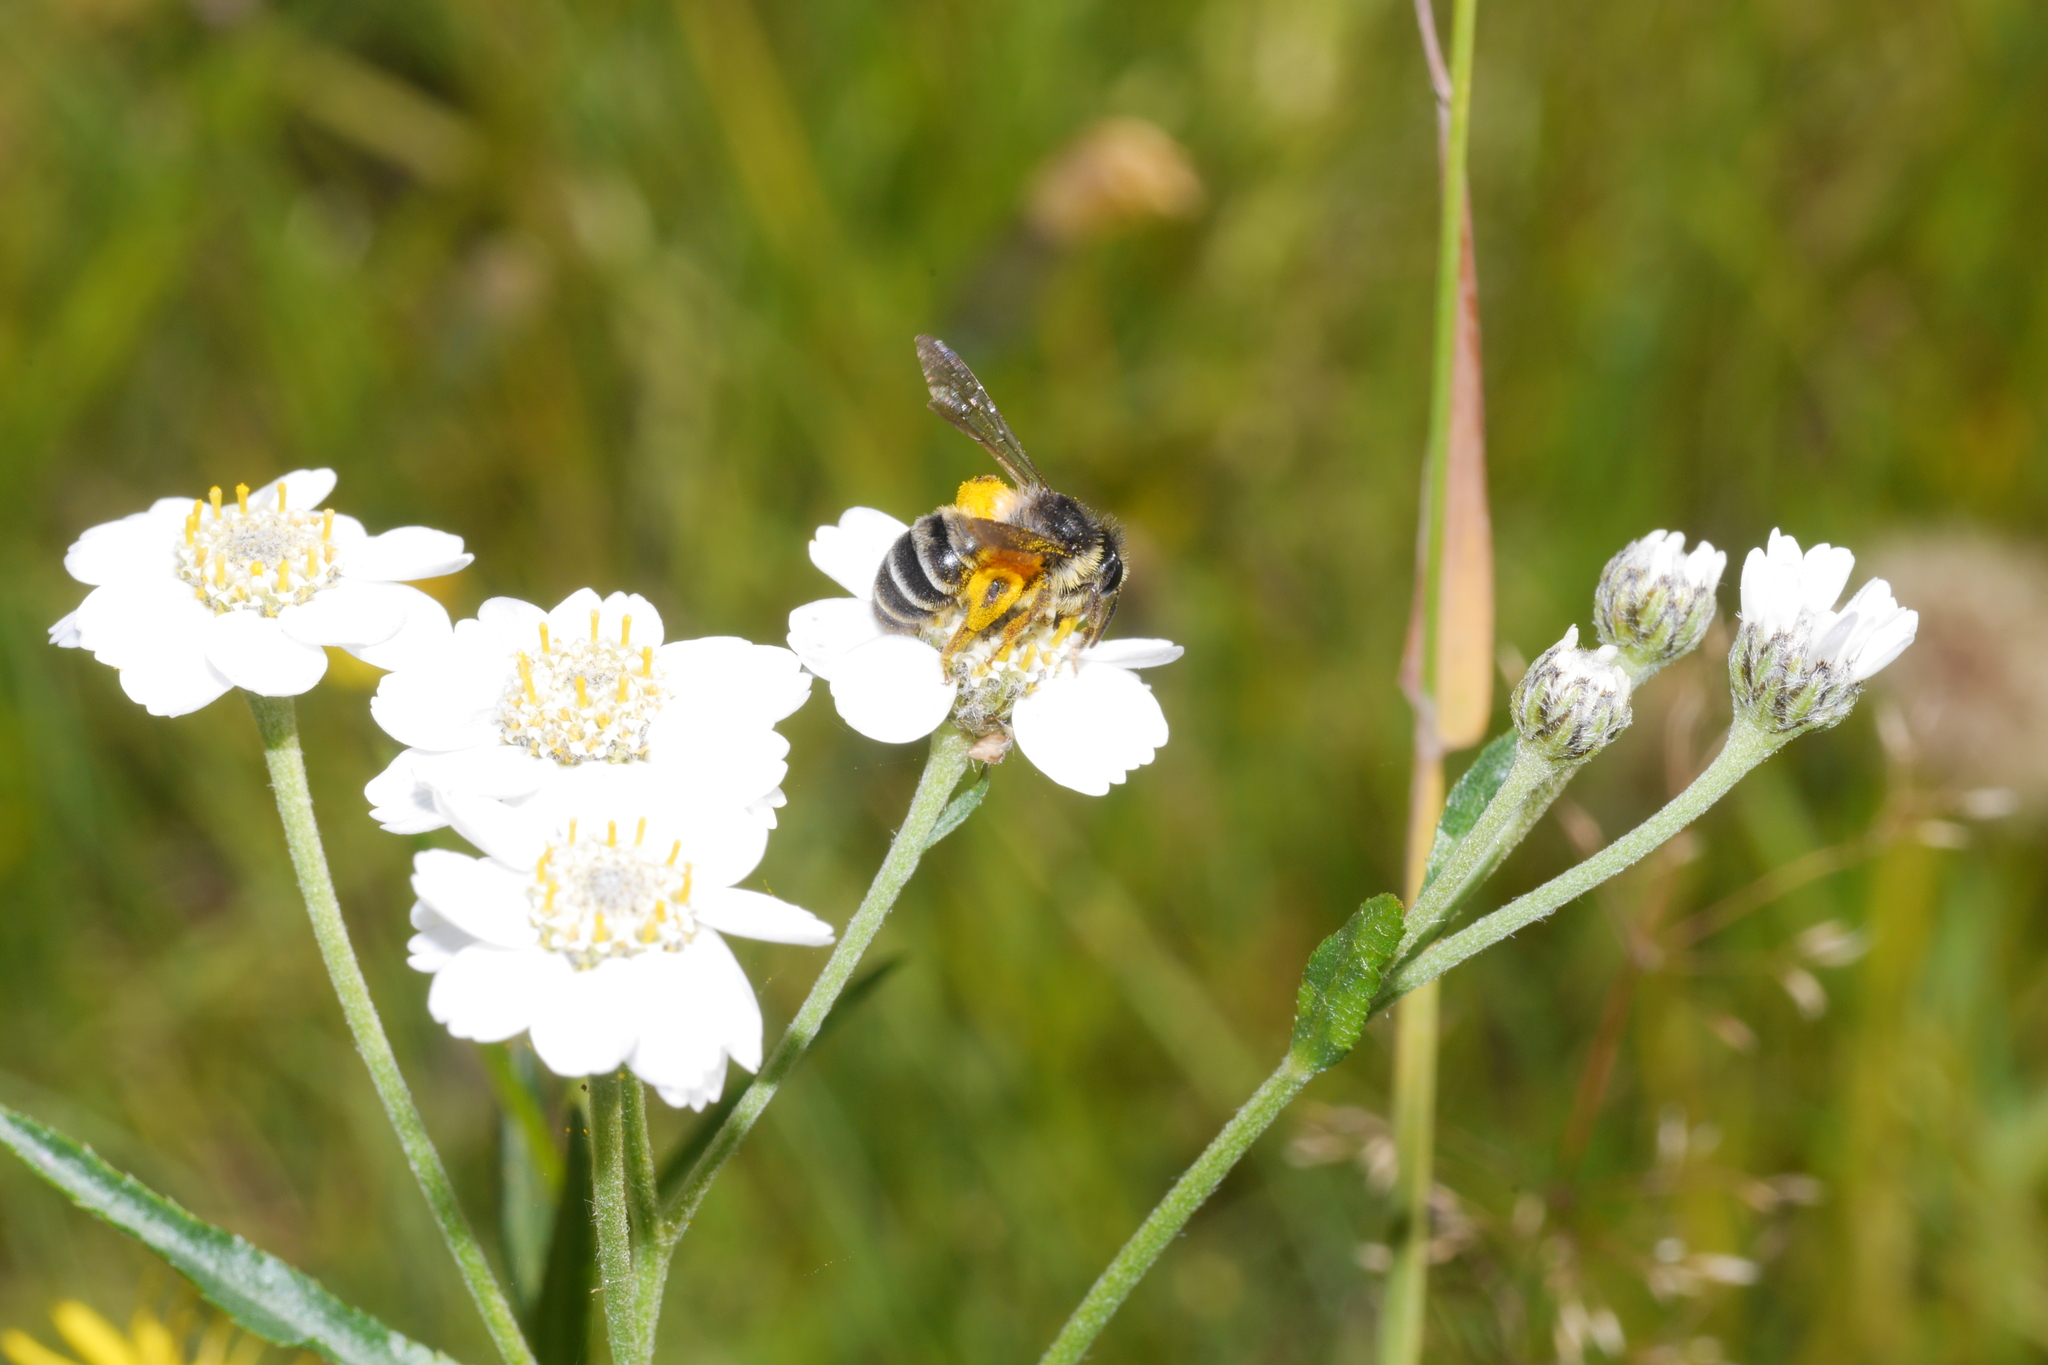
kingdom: Animalia
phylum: Arthropoda
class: Insecta
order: Hymenoptera
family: Andrenidae
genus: Andrena
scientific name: Andrena denticulata
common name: Grey-banded mining bee
